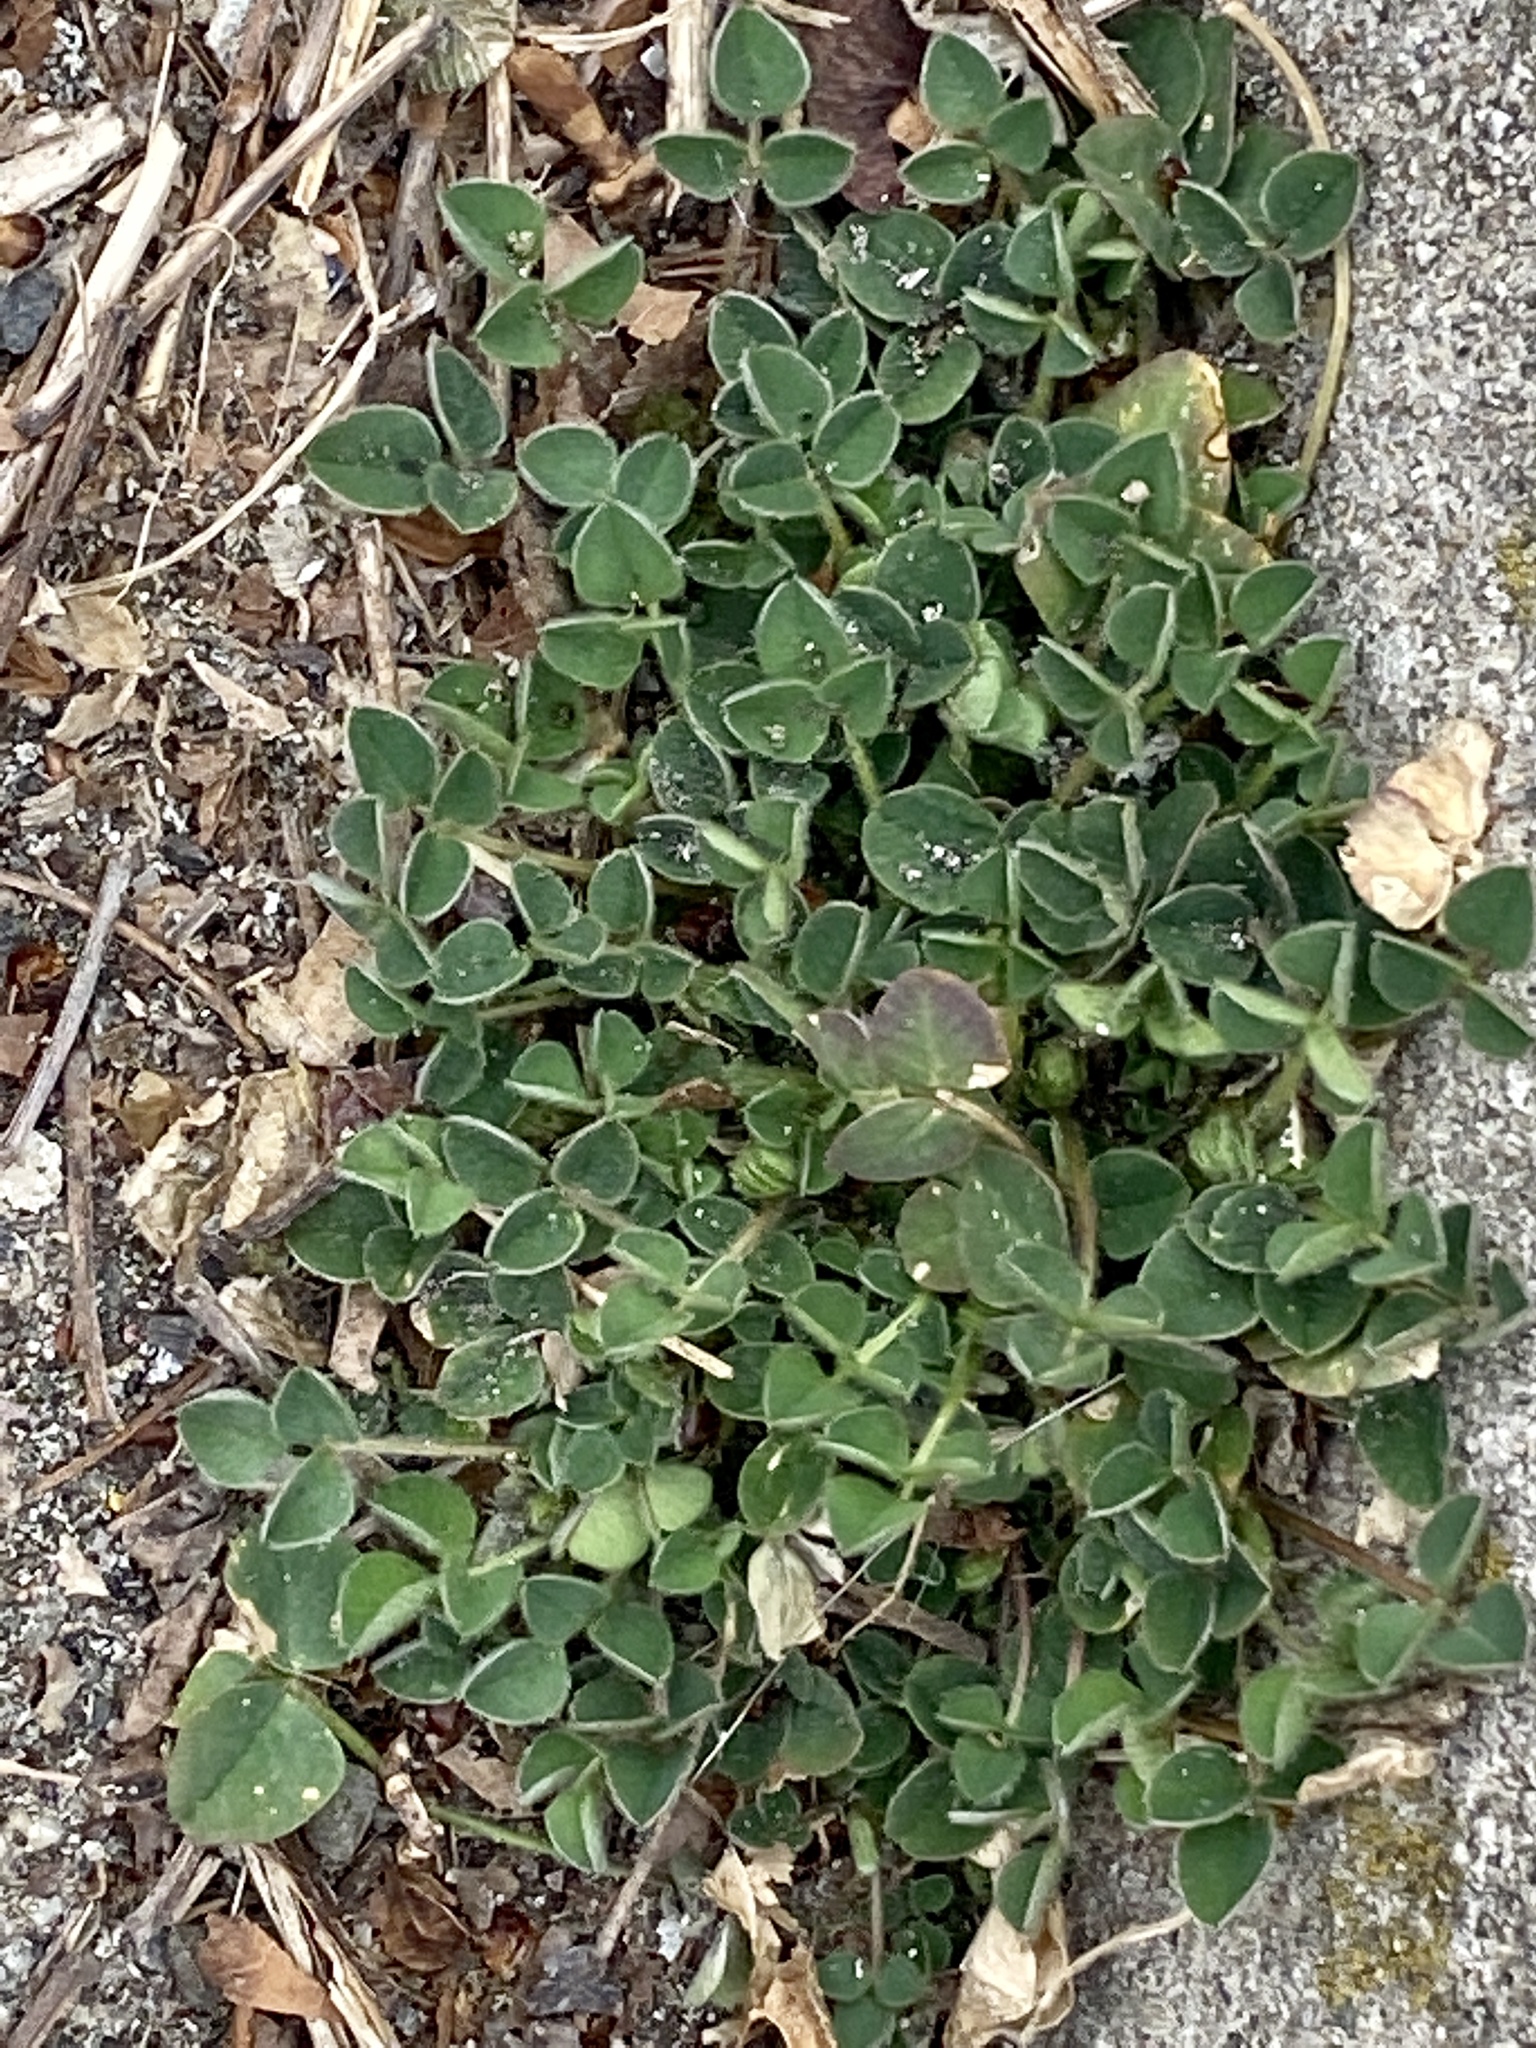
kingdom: Plantae
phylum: Tracheophyta
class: Magnoliopsida
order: Fabales
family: Fabaceae
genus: Medicago
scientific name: Medicago lupulina
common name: Black medick
